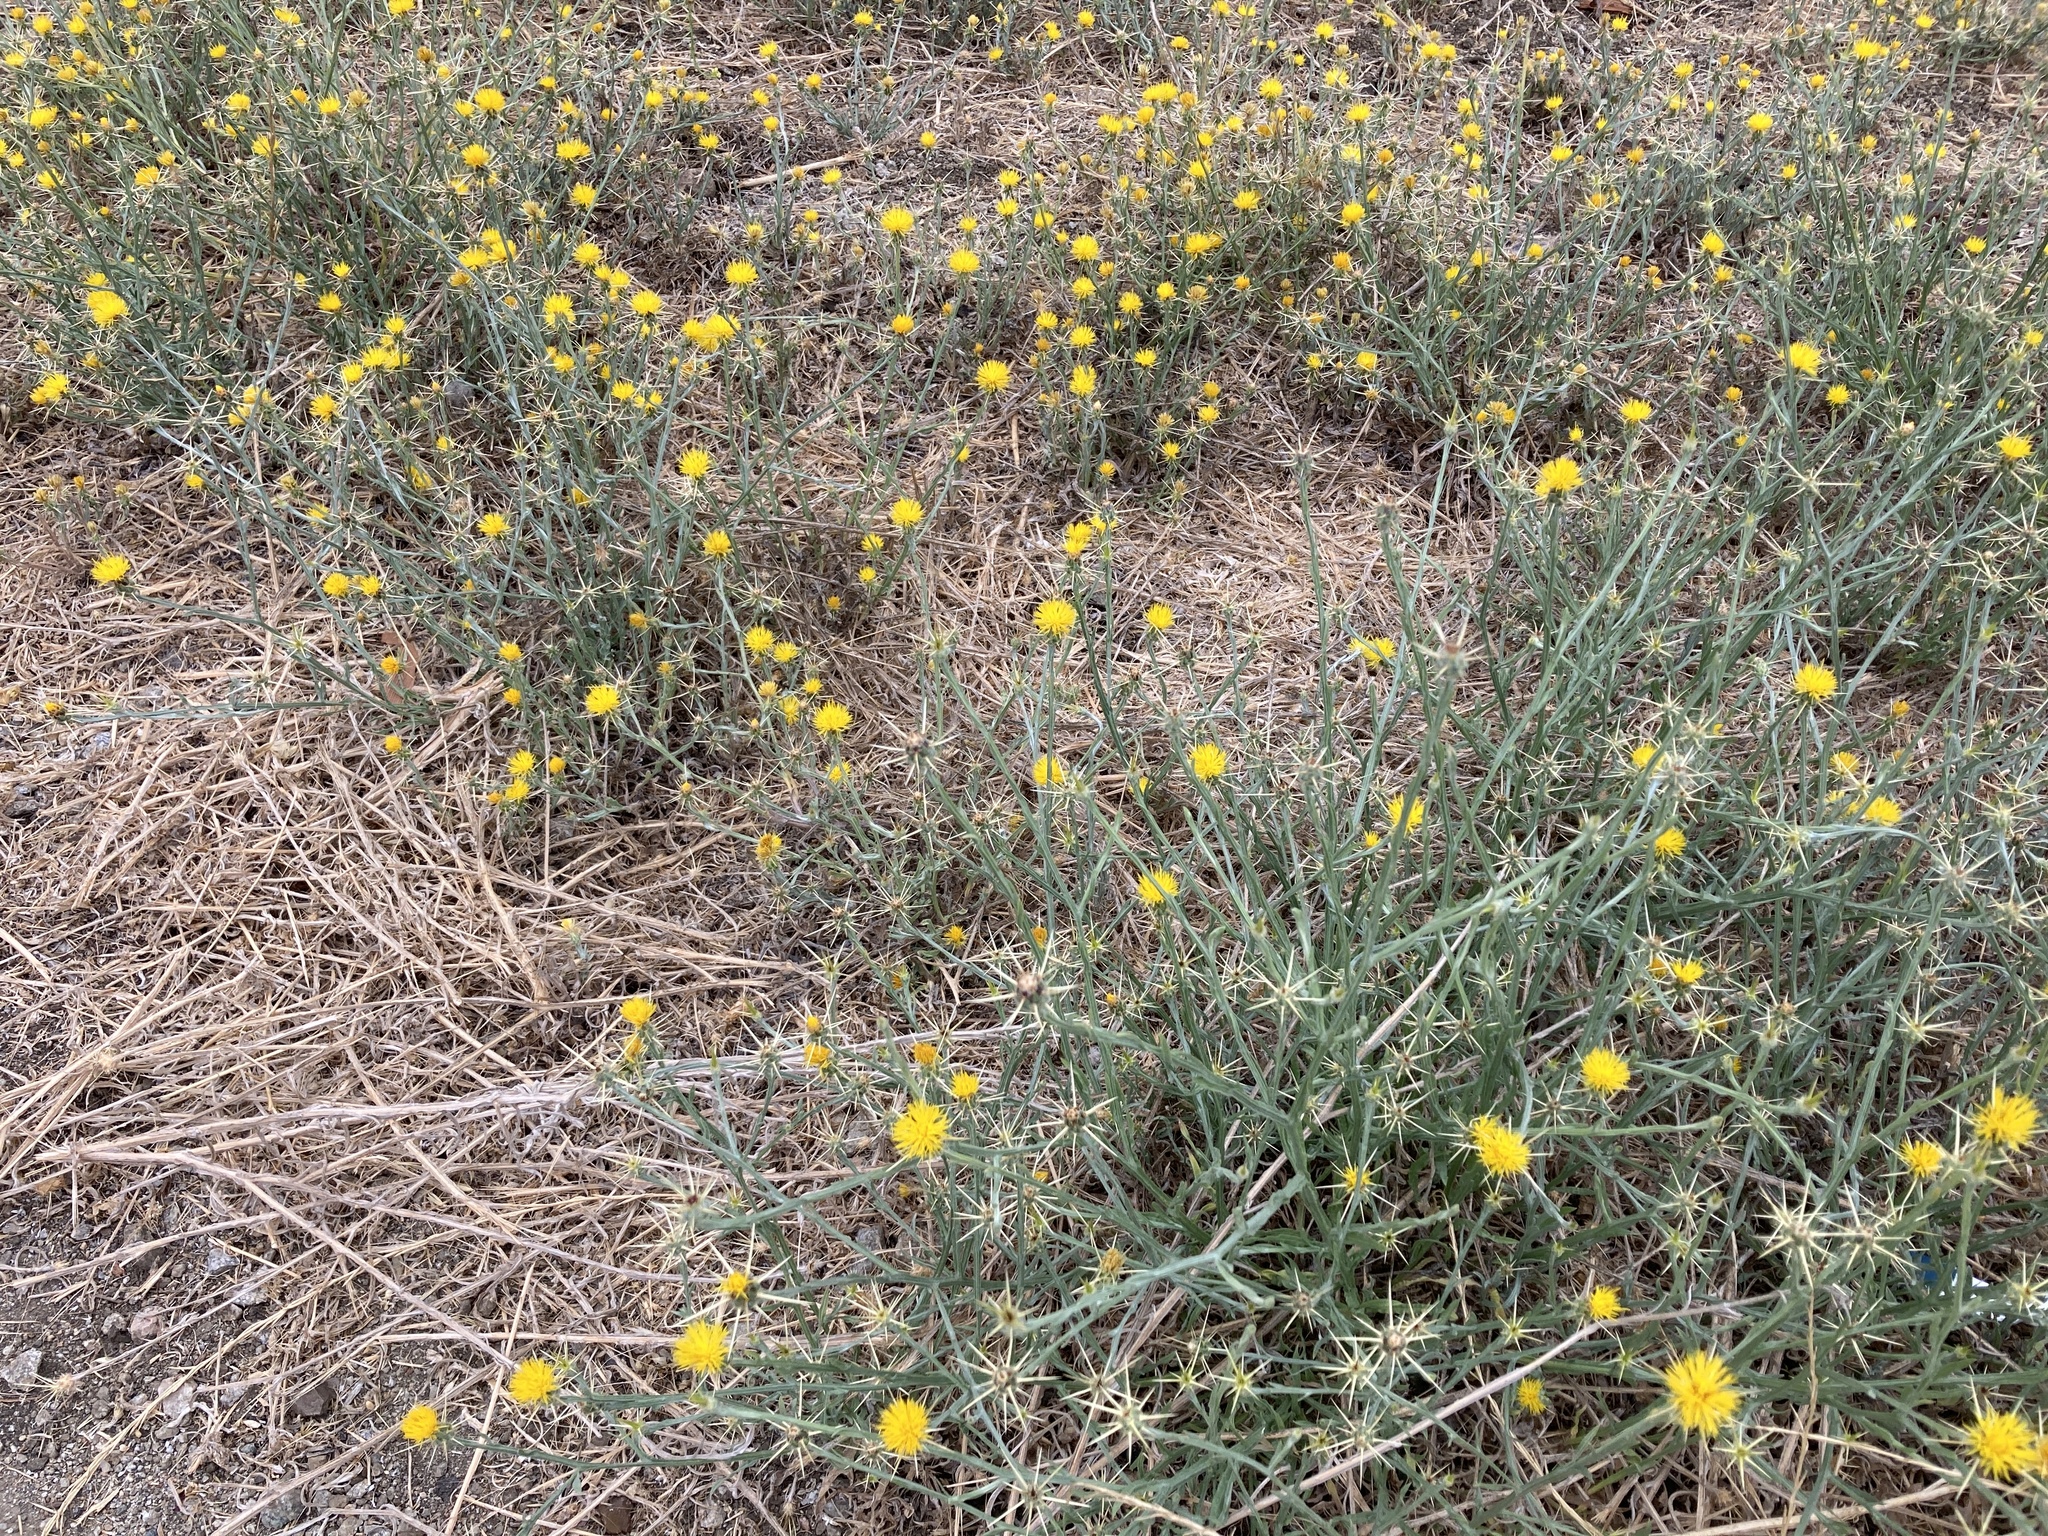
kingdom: Plantae
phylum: Tracheophyta
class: Magnoliopsida
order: Asterales
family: Asteraceae
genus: Centaurea
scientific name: Centaurea solstitialis
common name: Yellow star-thistle
